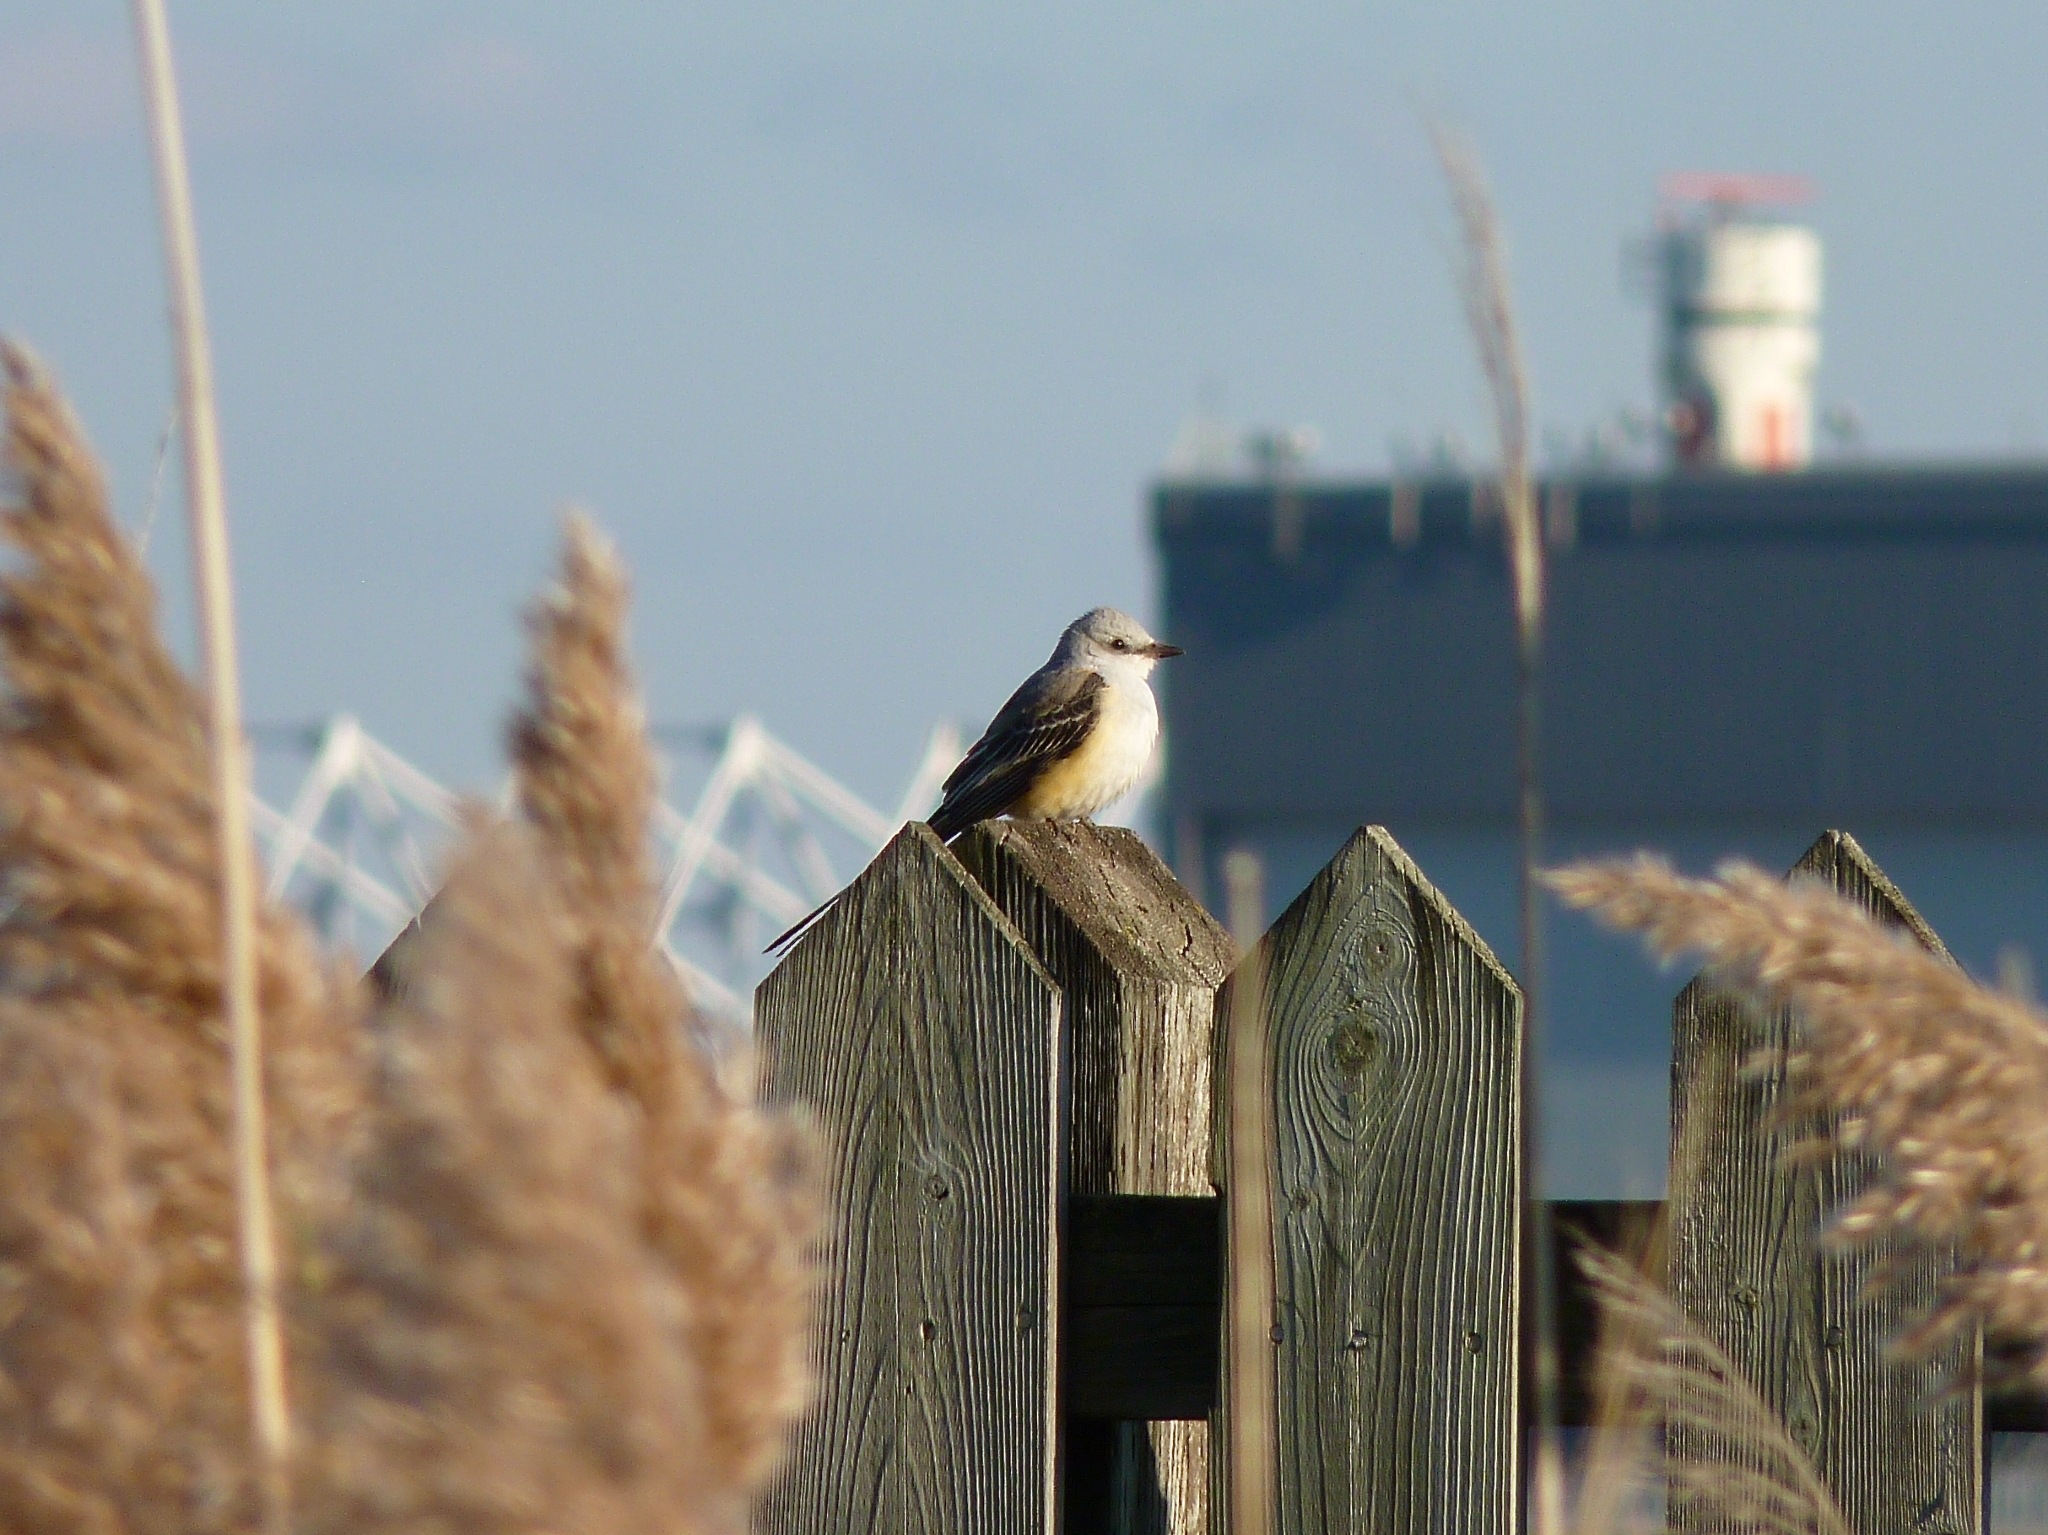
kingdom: Animalia
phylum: Chordata
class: Aves
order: Passeriformes
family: Tyrannidae
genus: Tyrannus
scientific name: Tyrannus forficatus
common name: Scissor-tailed flycatcher
